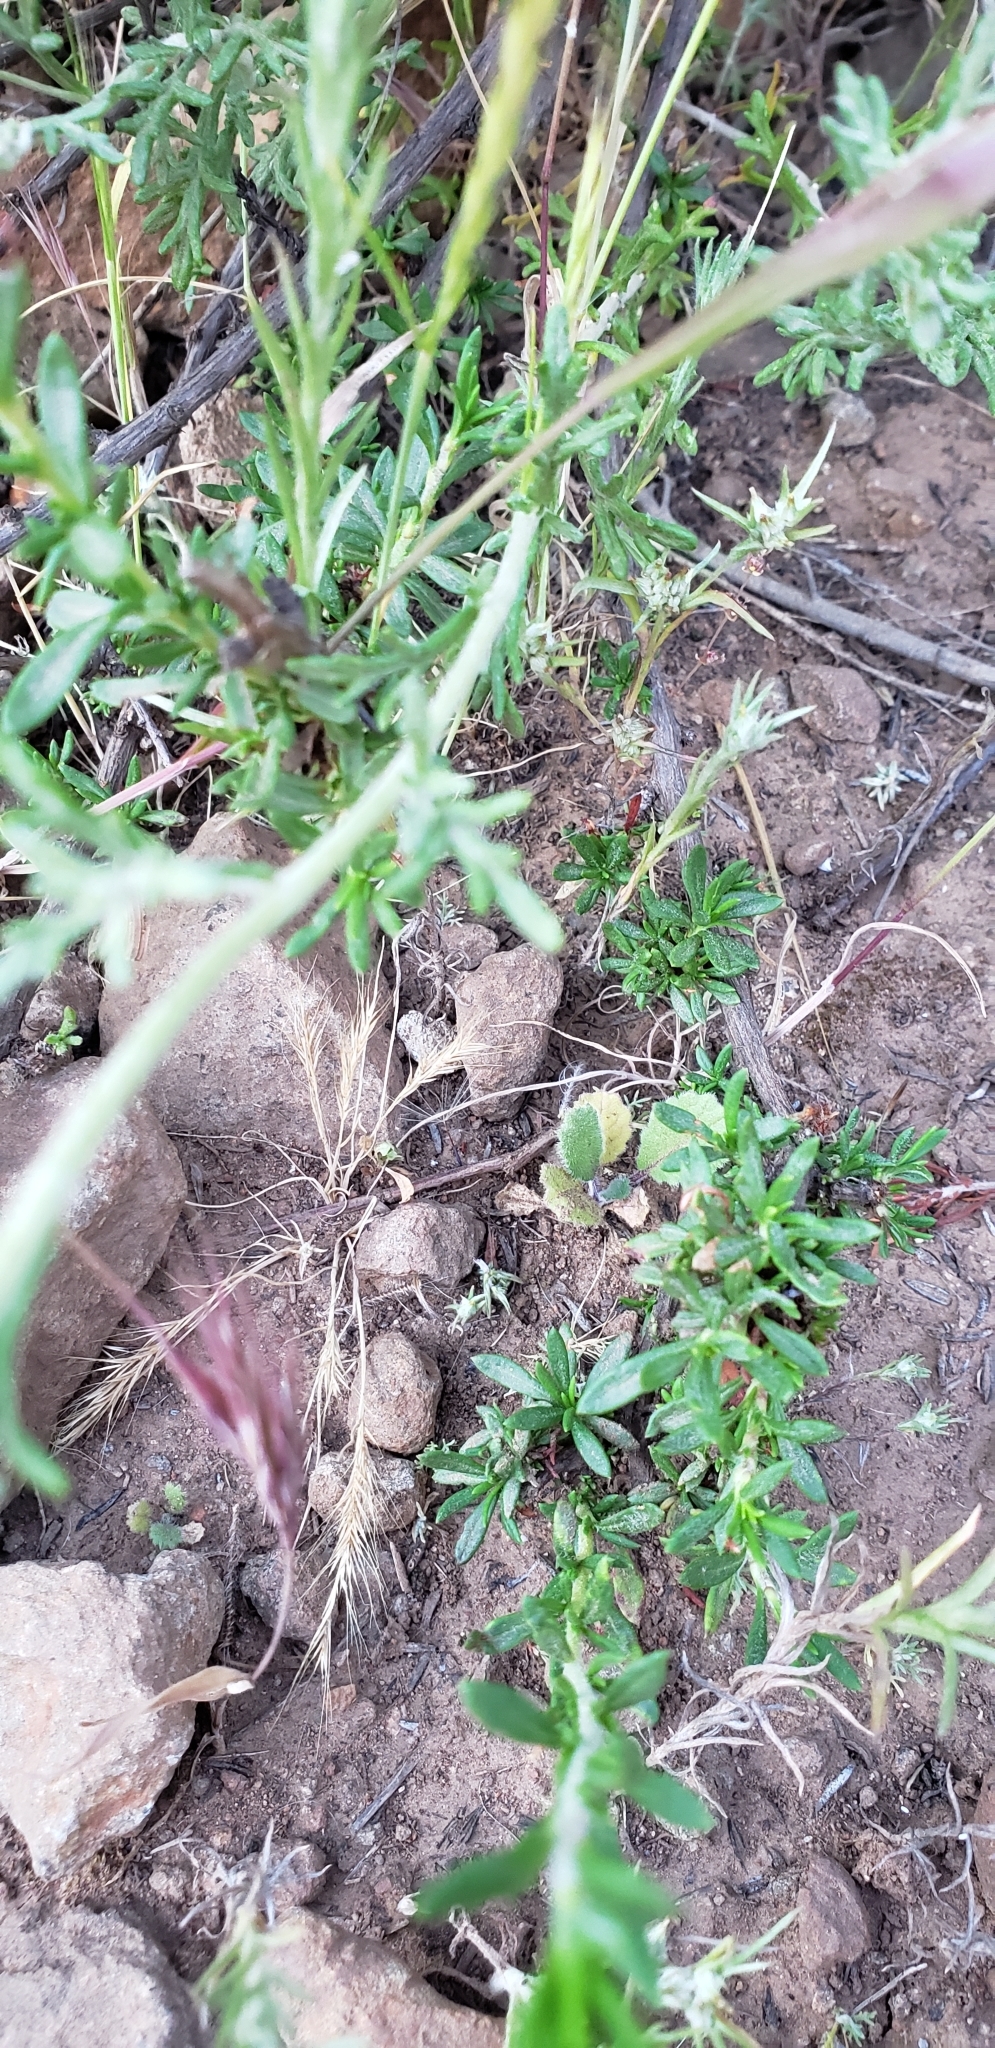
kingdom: Plantae
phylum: Tracheophyta
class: Magnoliopsida
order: Asterales
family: Asteraceae
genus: Eriophyllum
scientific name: Eriophyllum confertiflorum
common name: Golden-yarrow
